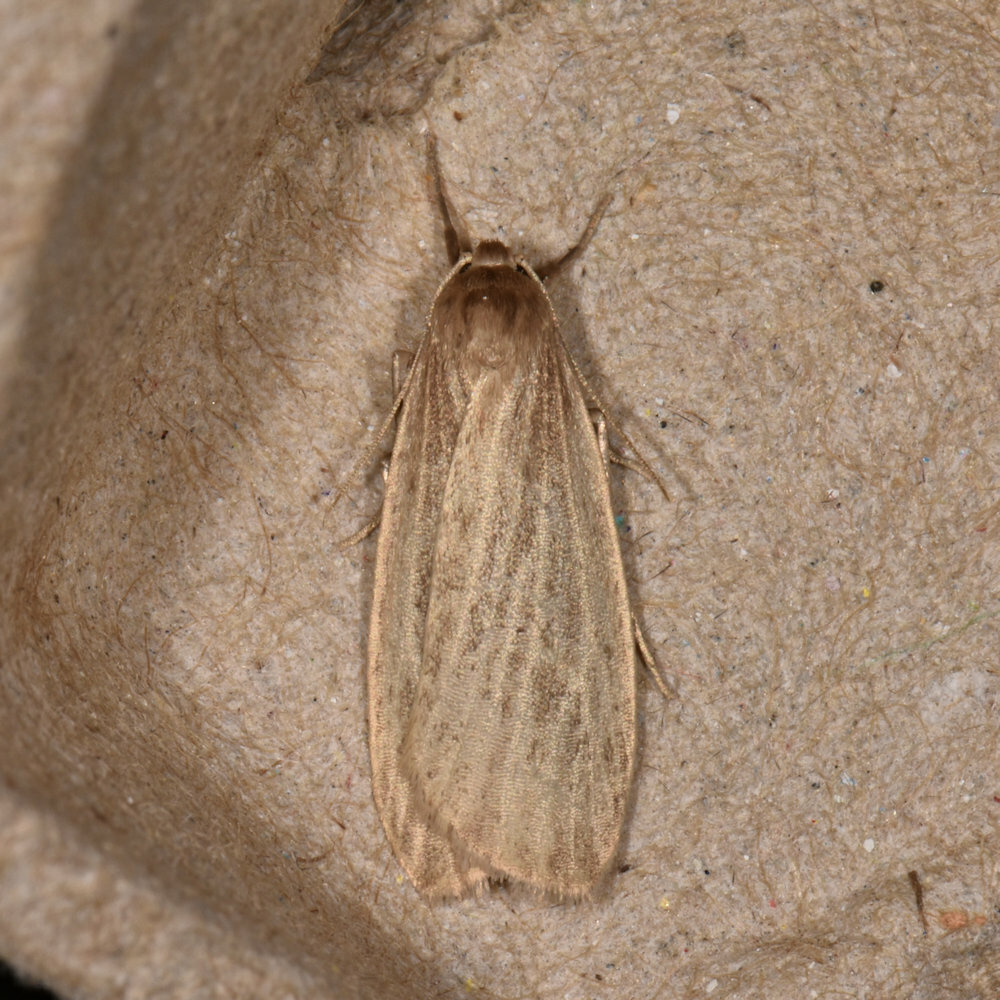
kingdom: Animalia
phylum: Arthropoda
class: Insecta
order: Lepidoptera
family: Erebidae
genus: Crambidia
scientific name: Crambidia pallida
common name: Pale lichen moth
